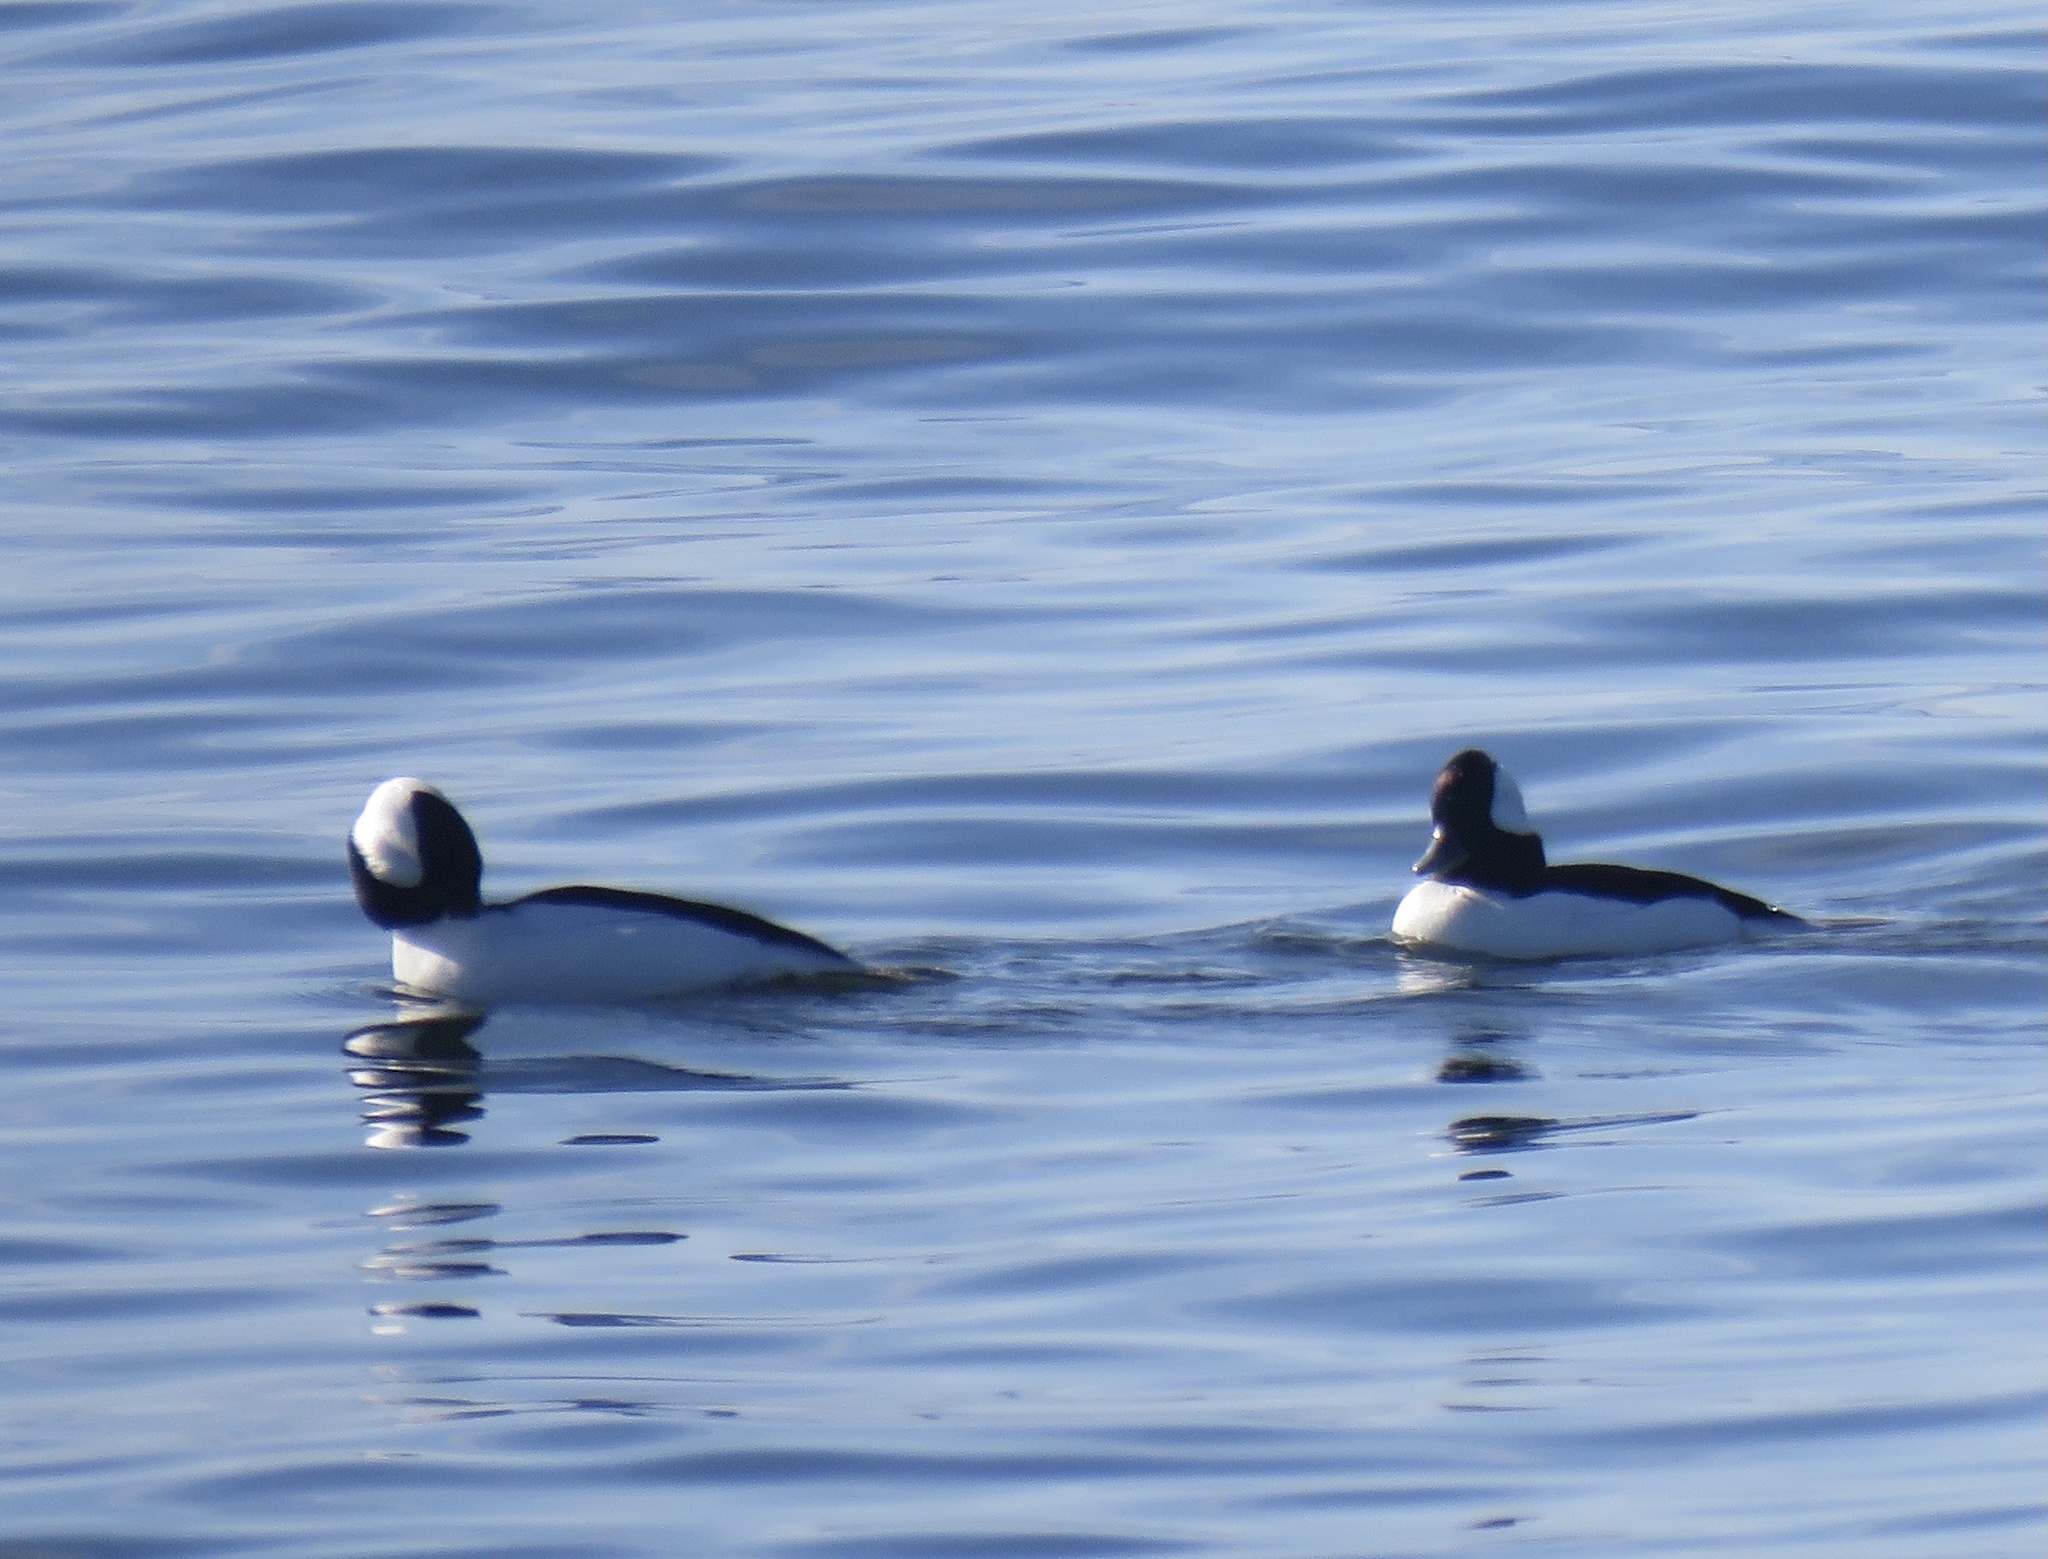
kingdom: Animalia
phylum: Chordata
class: Aves
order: Anseriformes
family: Anatidae
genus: Bucephala
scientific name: Bucephala albeola
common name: Bufflehead
